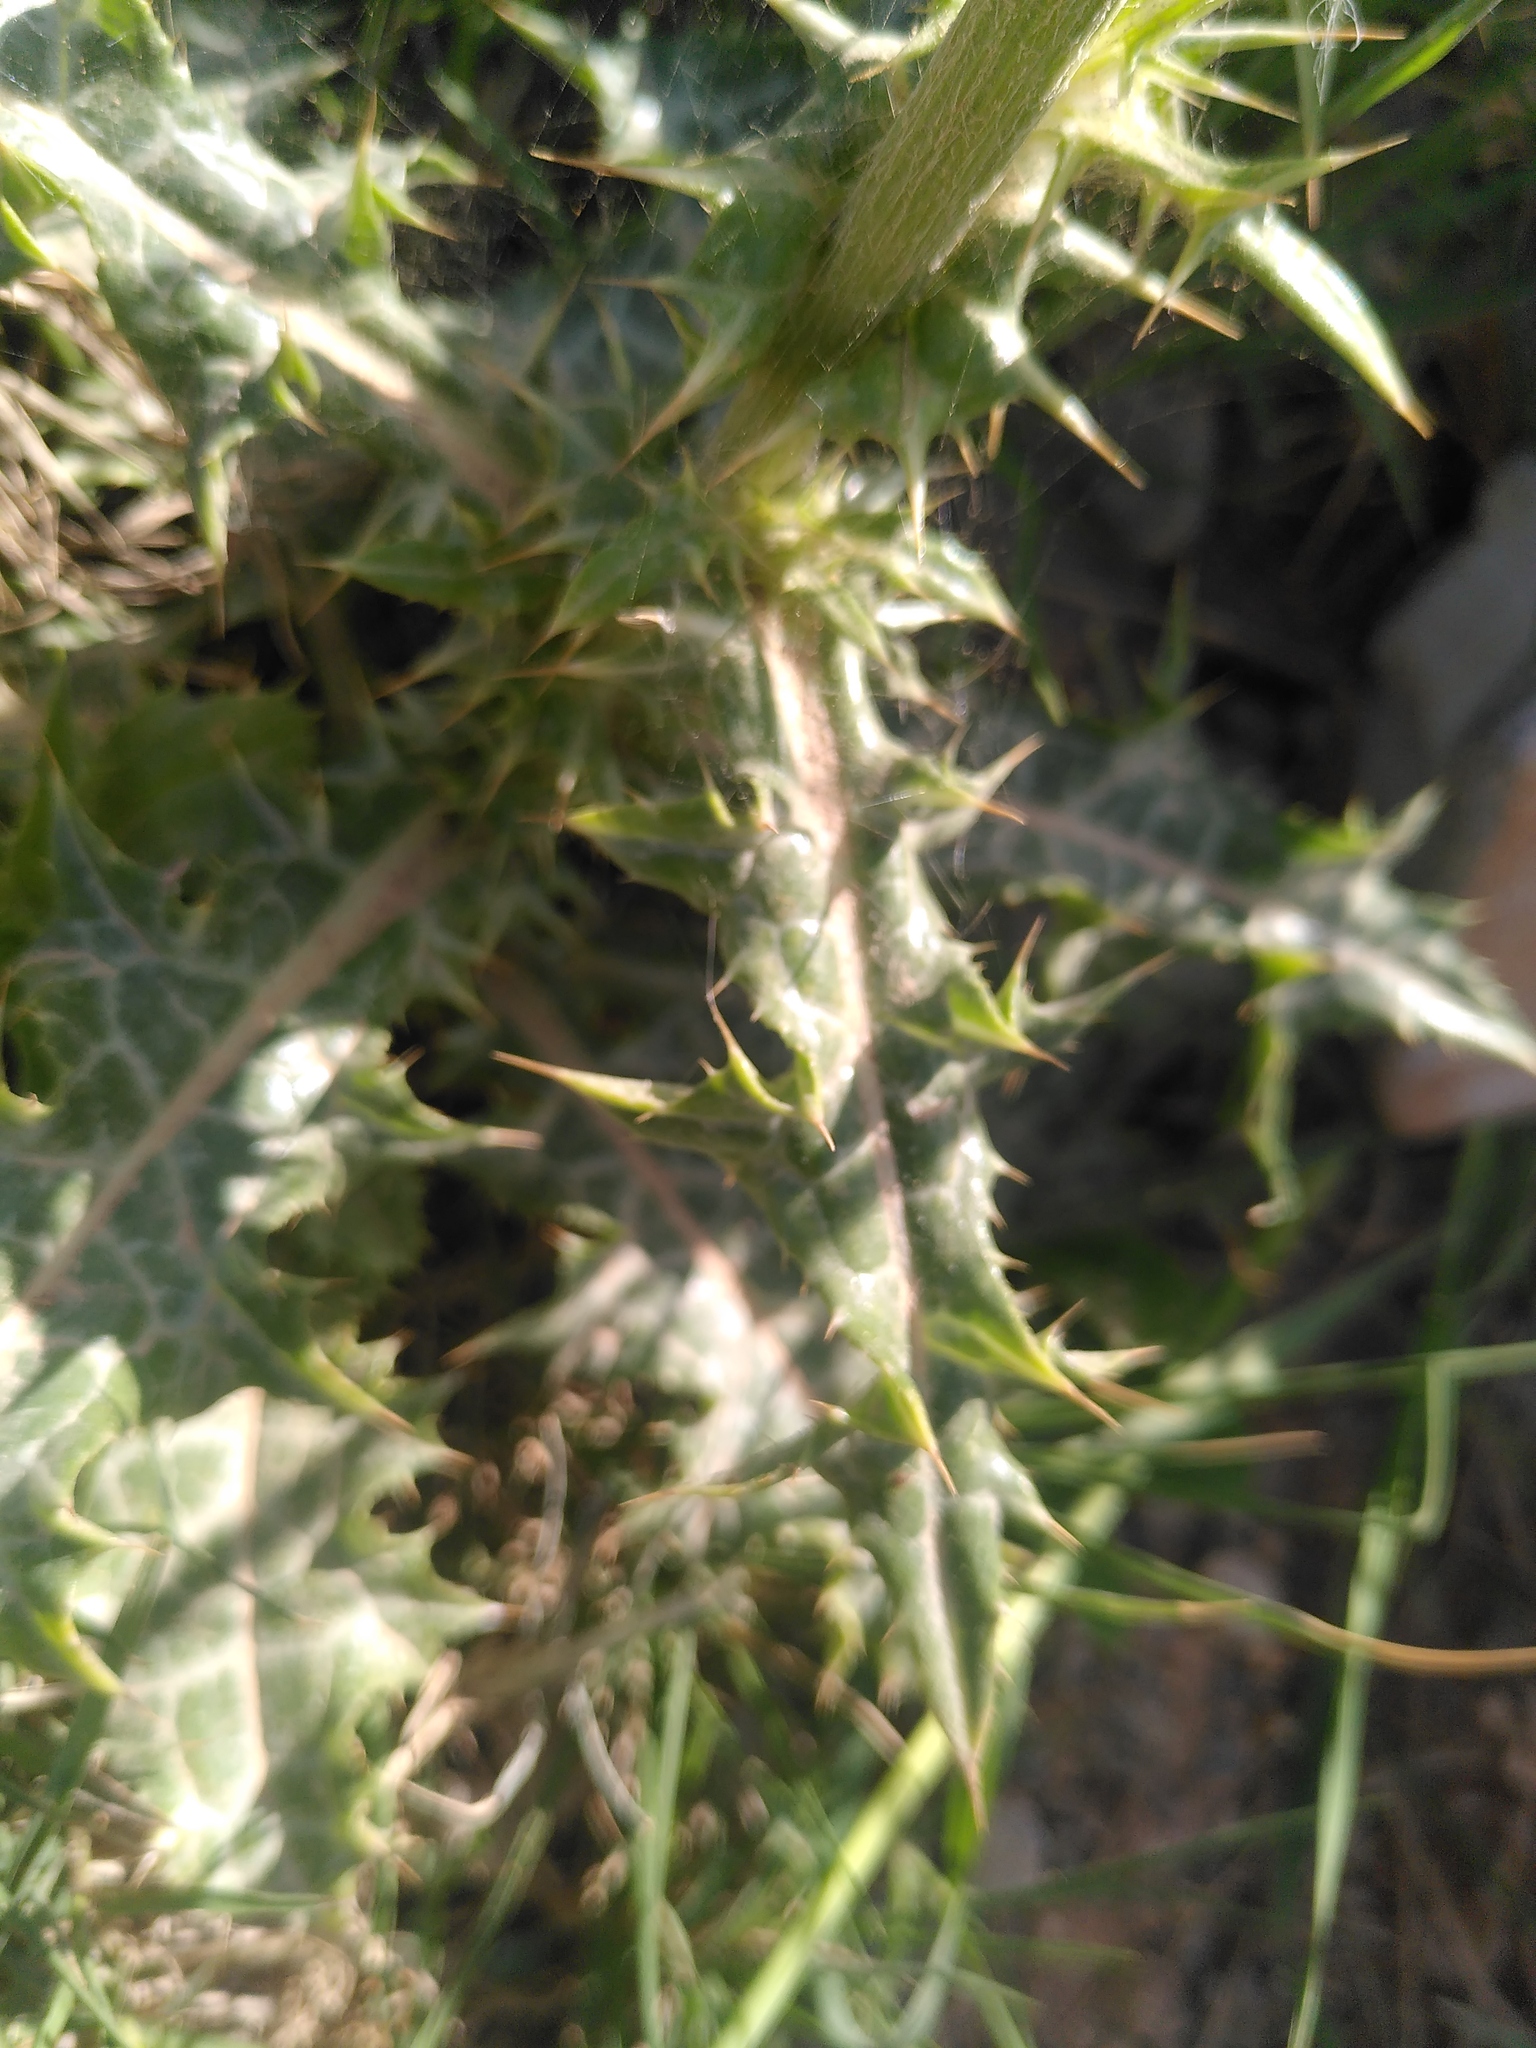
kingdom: Plantae
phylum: Tracheophyta
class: Magnoliopsida
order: Asterales
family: Asteraceae
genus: Notobasis
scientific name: Notobasis syriaca
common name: Syrian thistle
